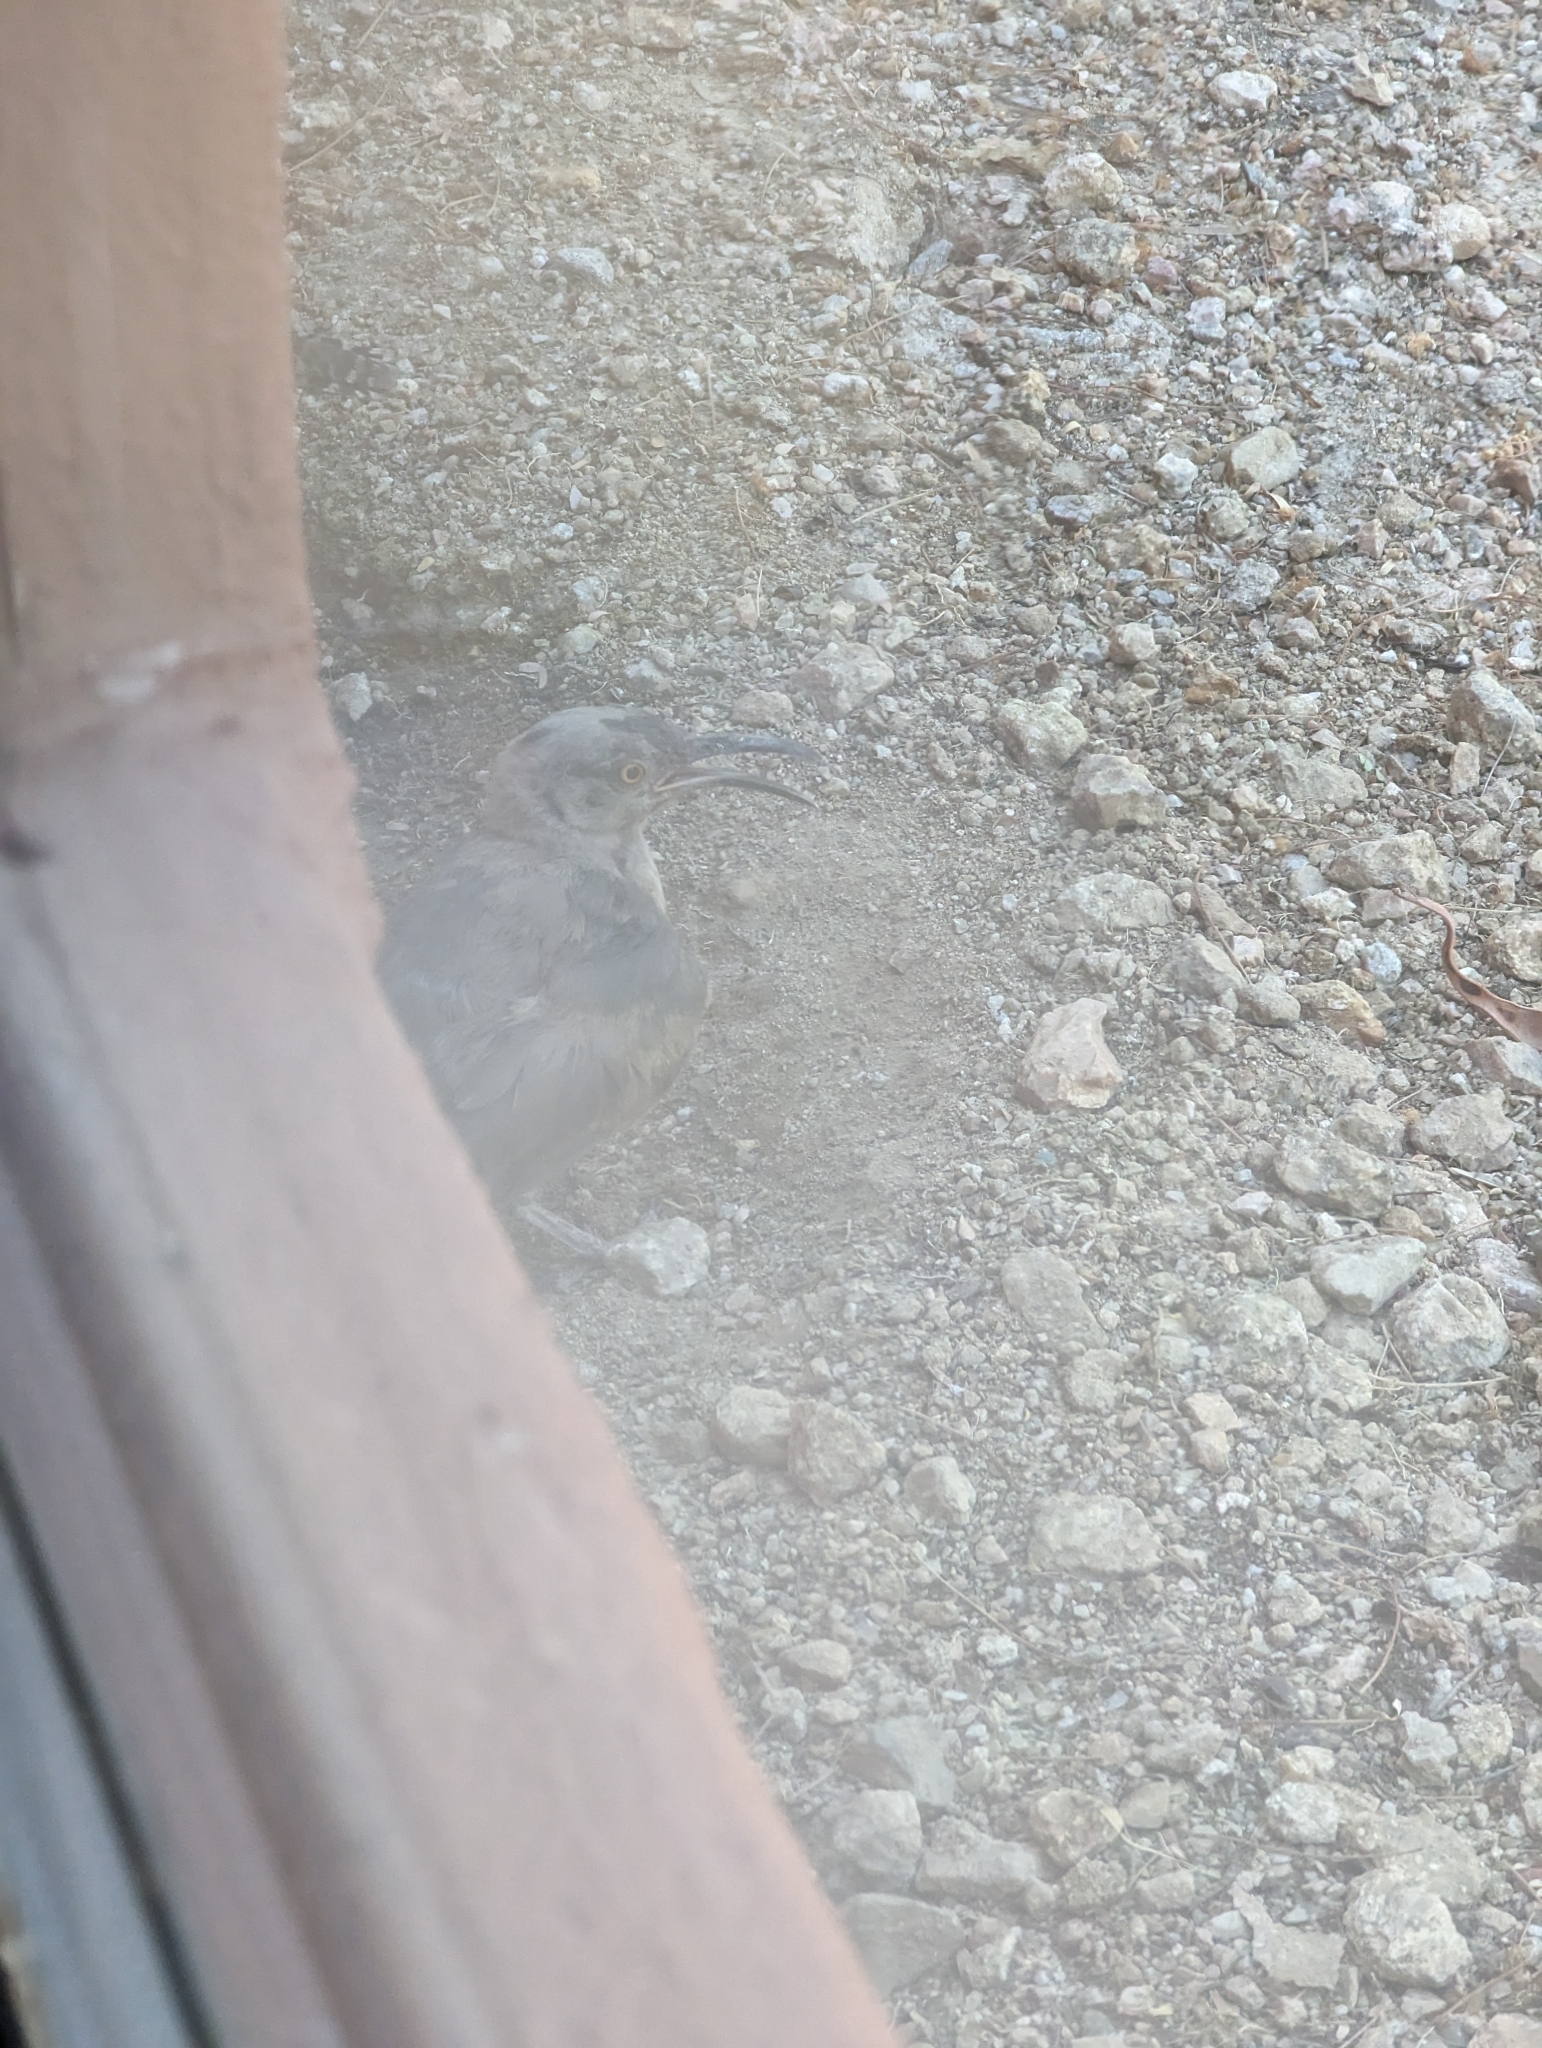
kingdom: Animalia
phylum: Chordata
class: Aves
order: Passeriformes
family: Mimidae
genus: Toxostoma
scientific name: Toxostoma curvirostre
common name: Curve-billed thrasher
